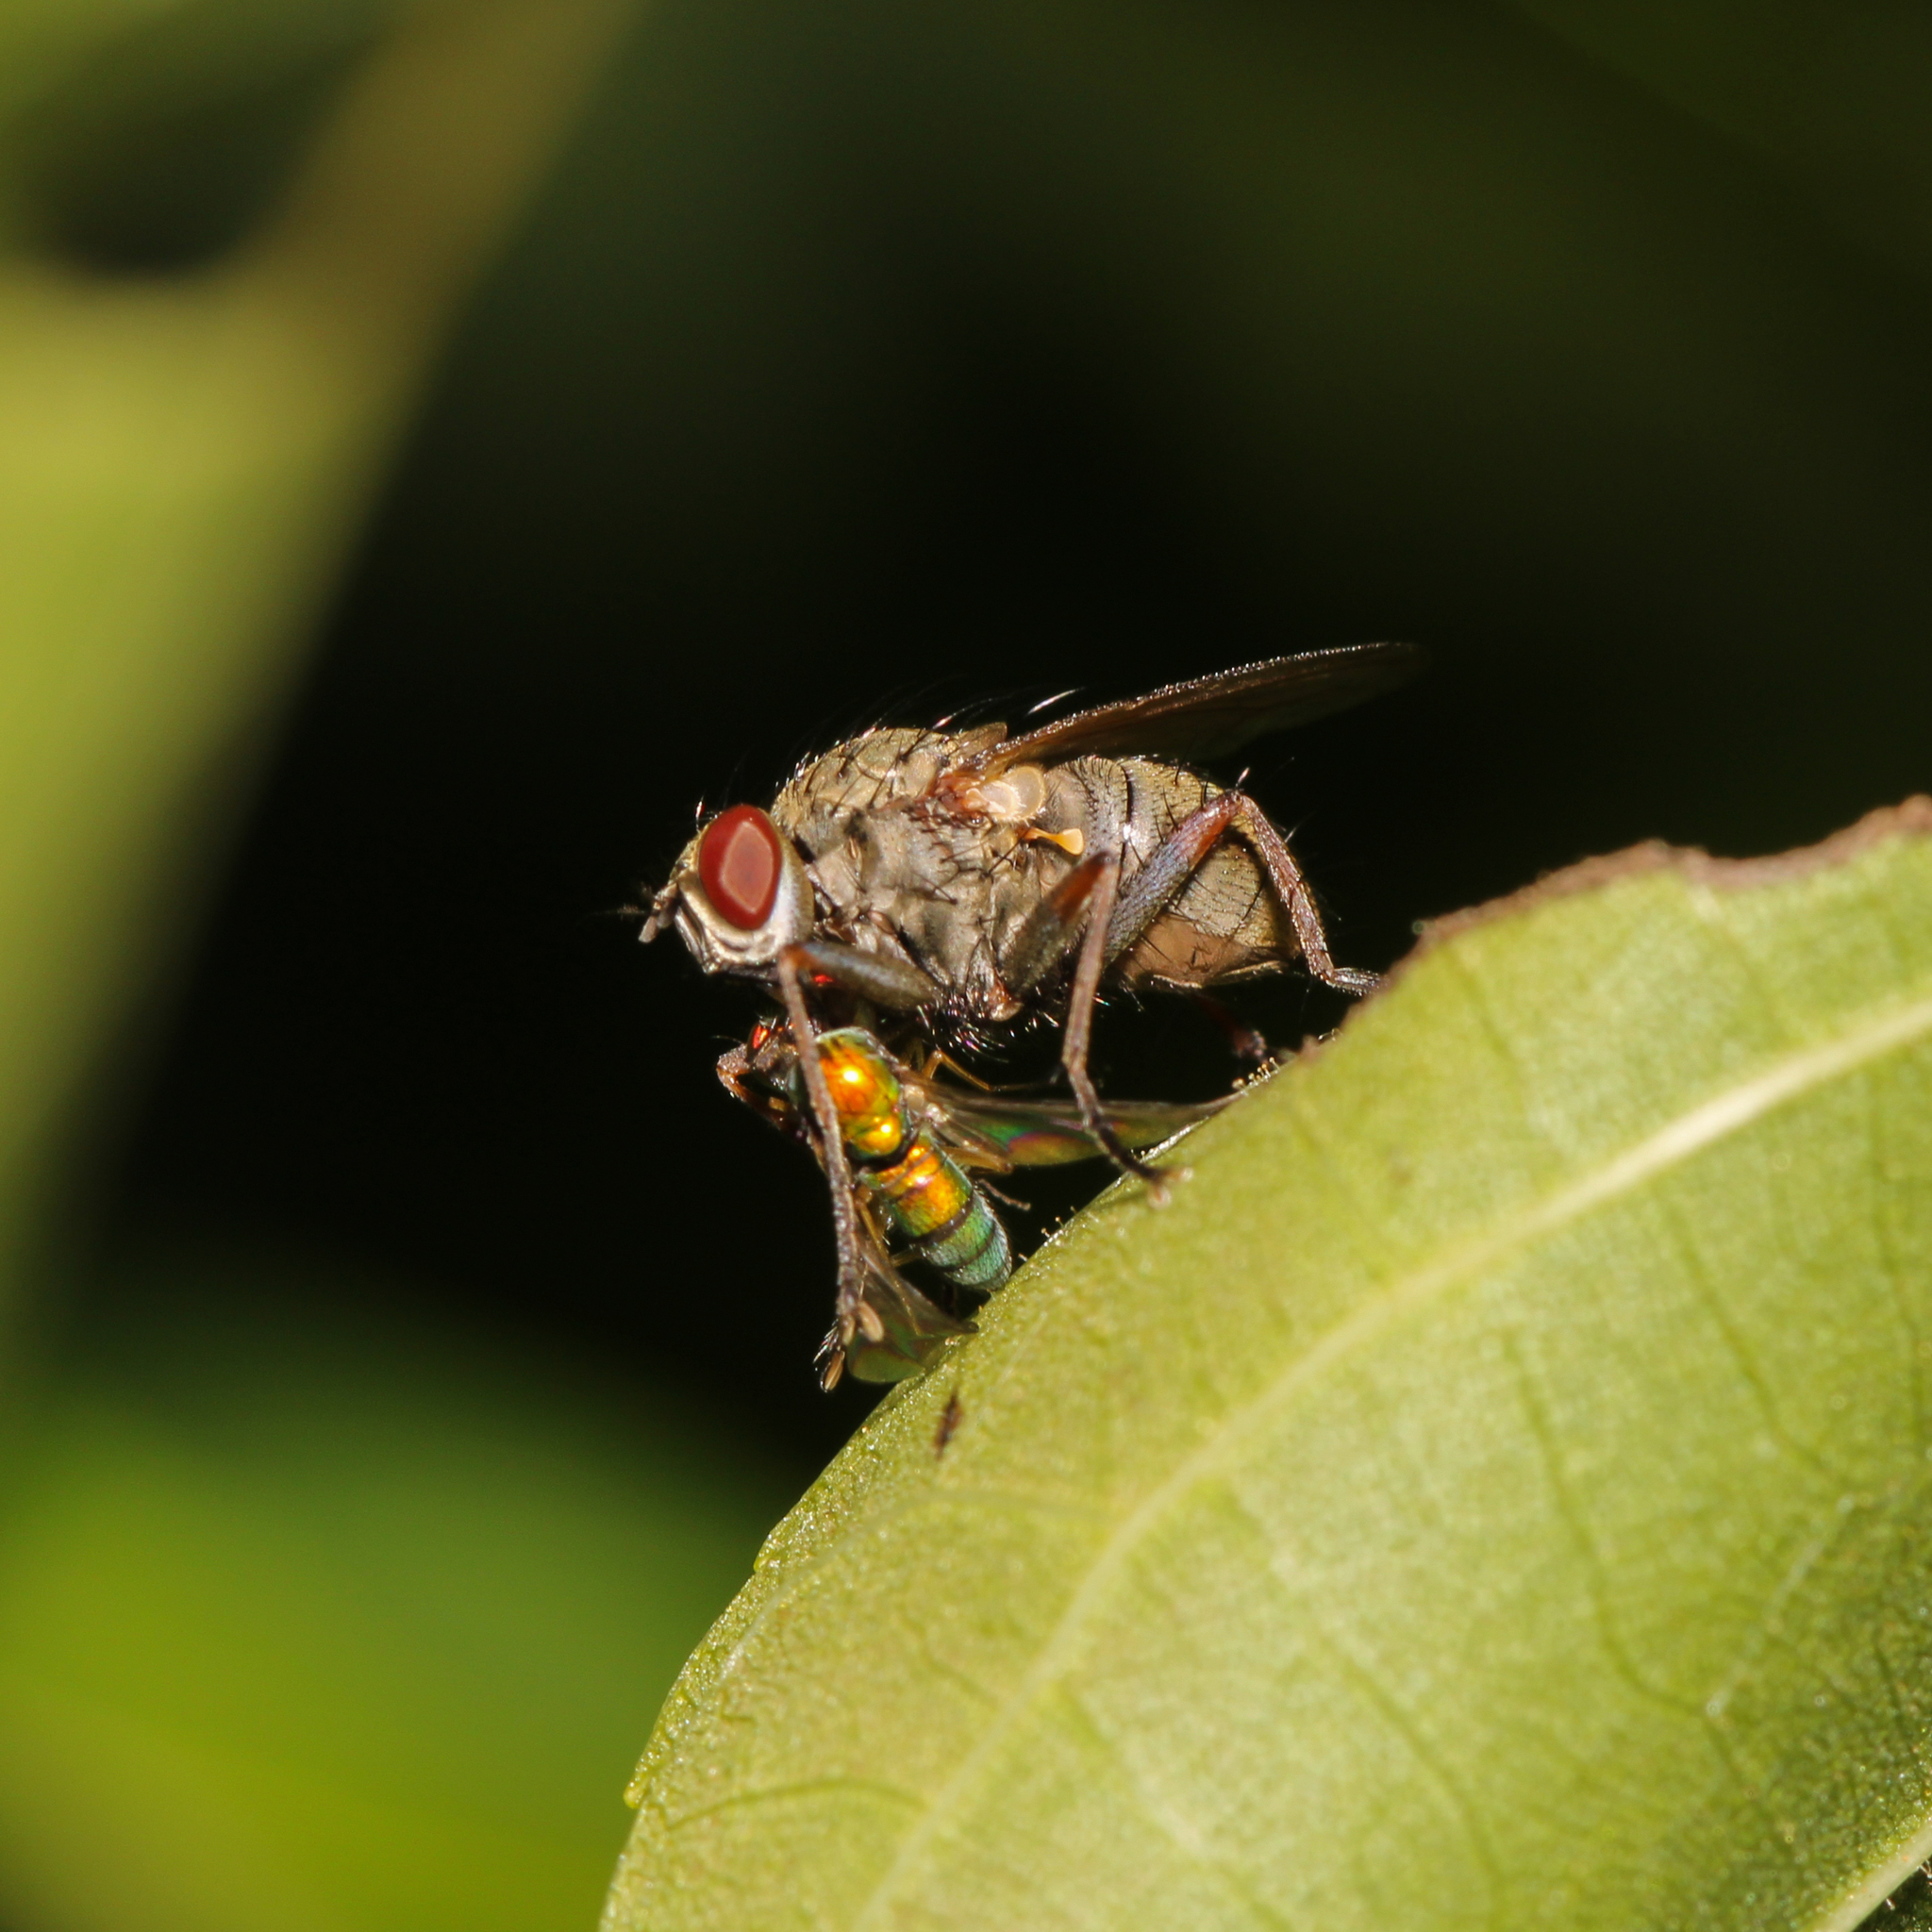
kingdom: Animalia
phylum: Arthropoda
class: Insecta
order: Diptera
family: Muscidae
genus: Coenosia
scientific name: Coenosia tigrina
